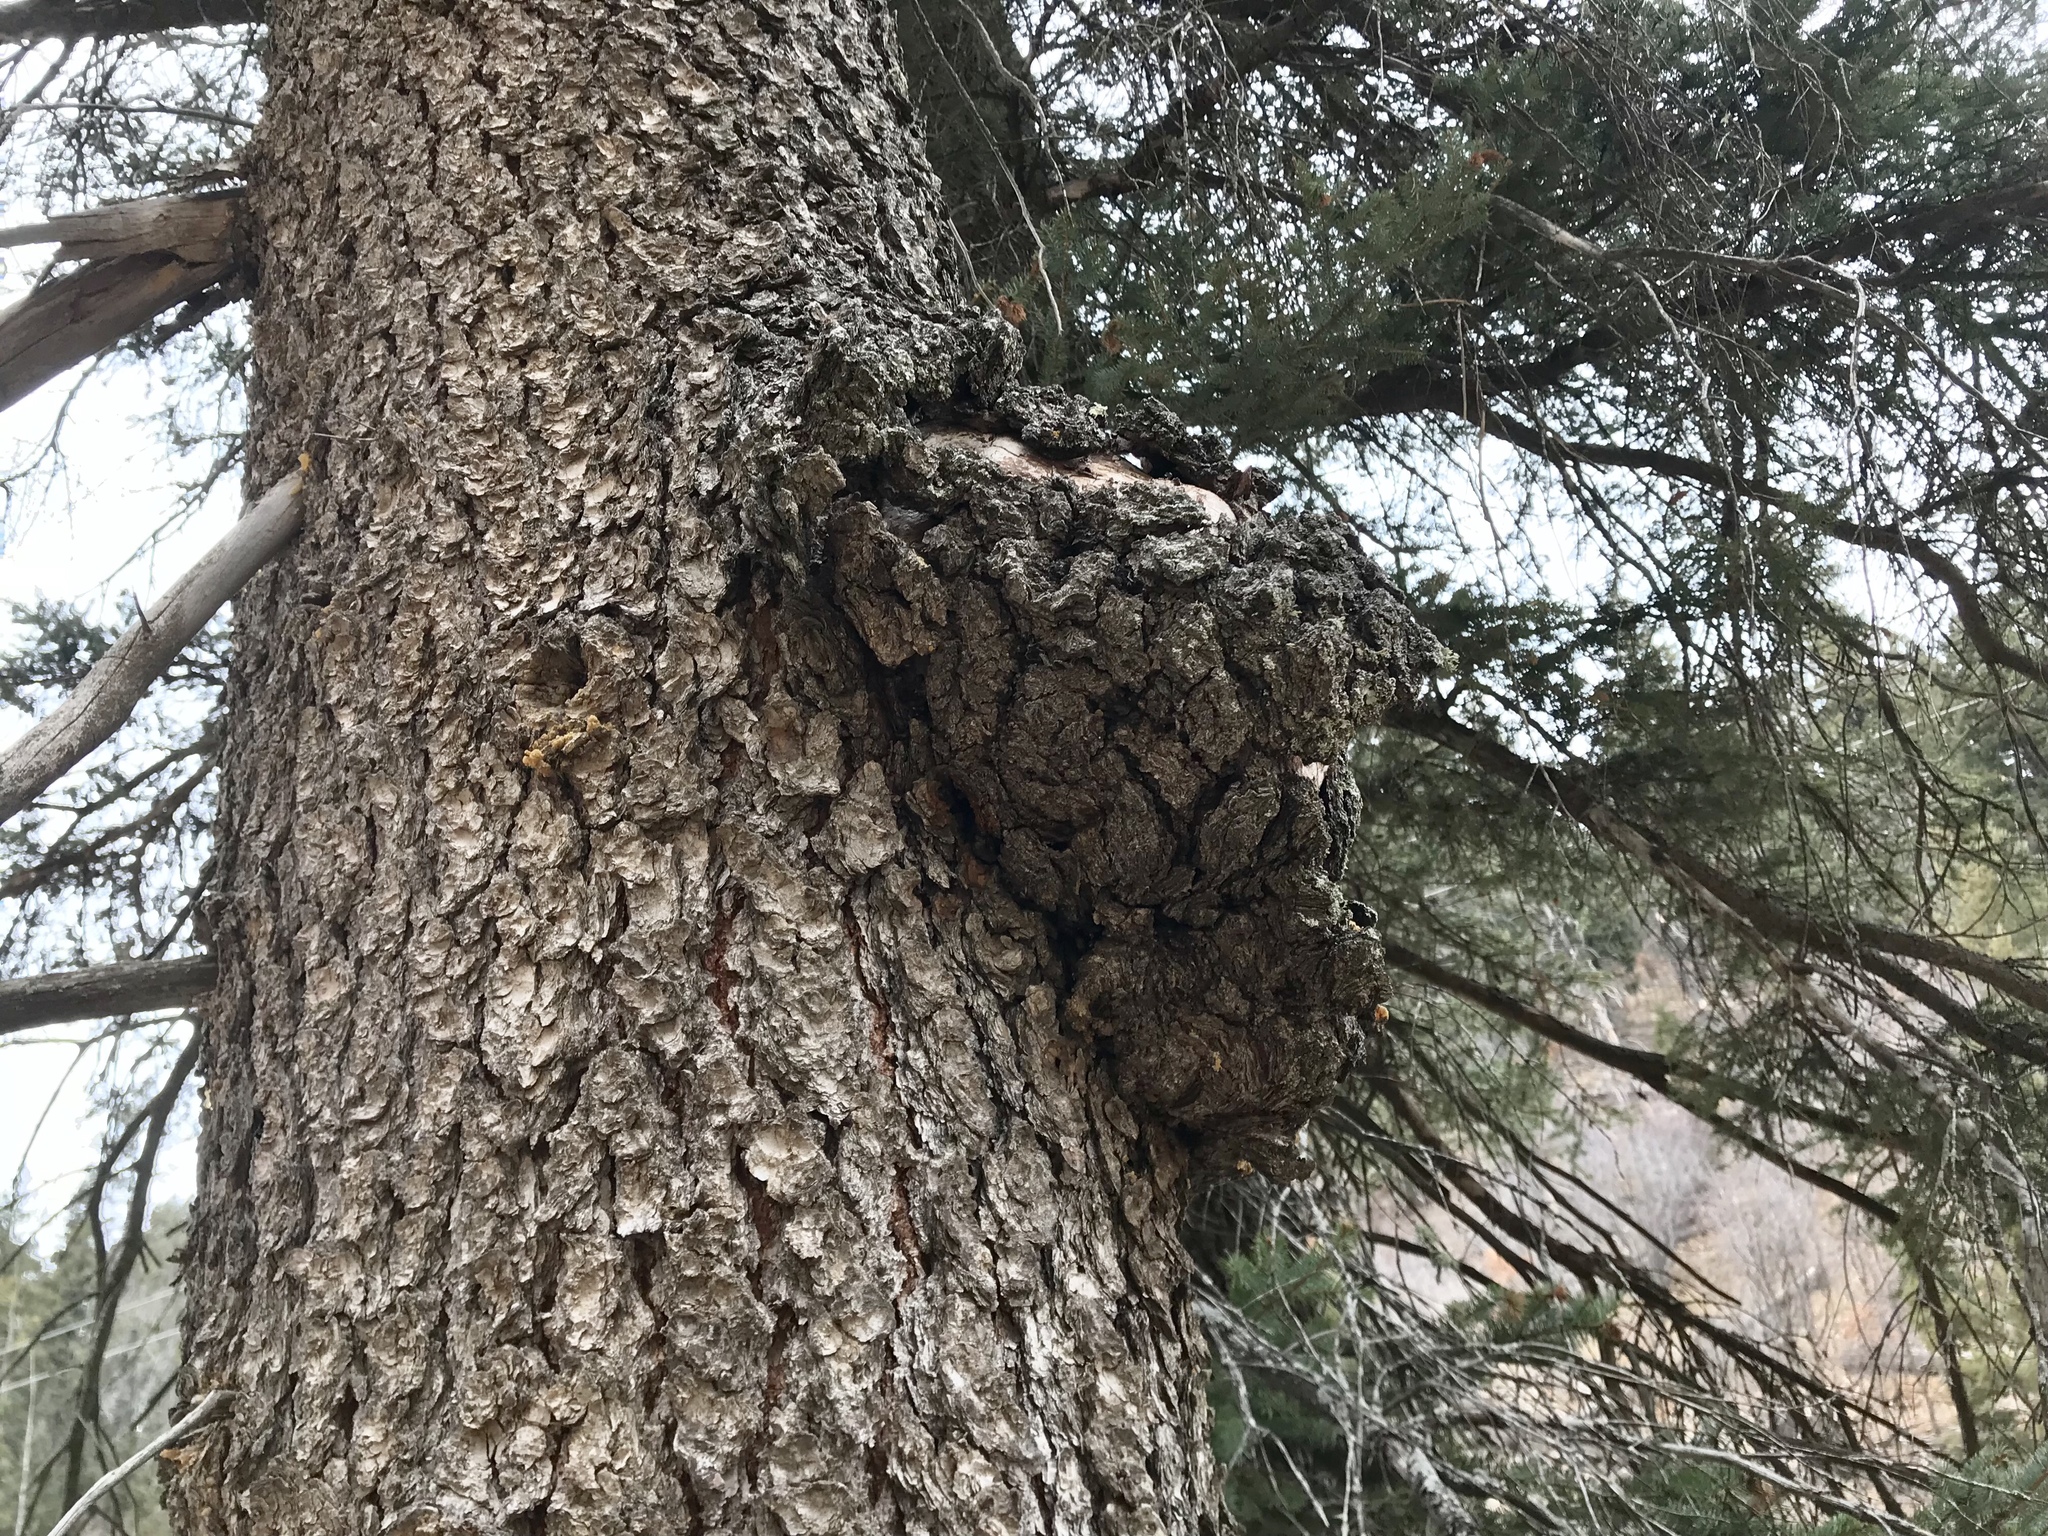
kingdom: Plantae
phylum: Tracheophyta
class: Pinopsida
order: Pinales
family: Pinaceae
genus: Picea
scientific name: Picea engelmannii
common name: Engelmann spruce
